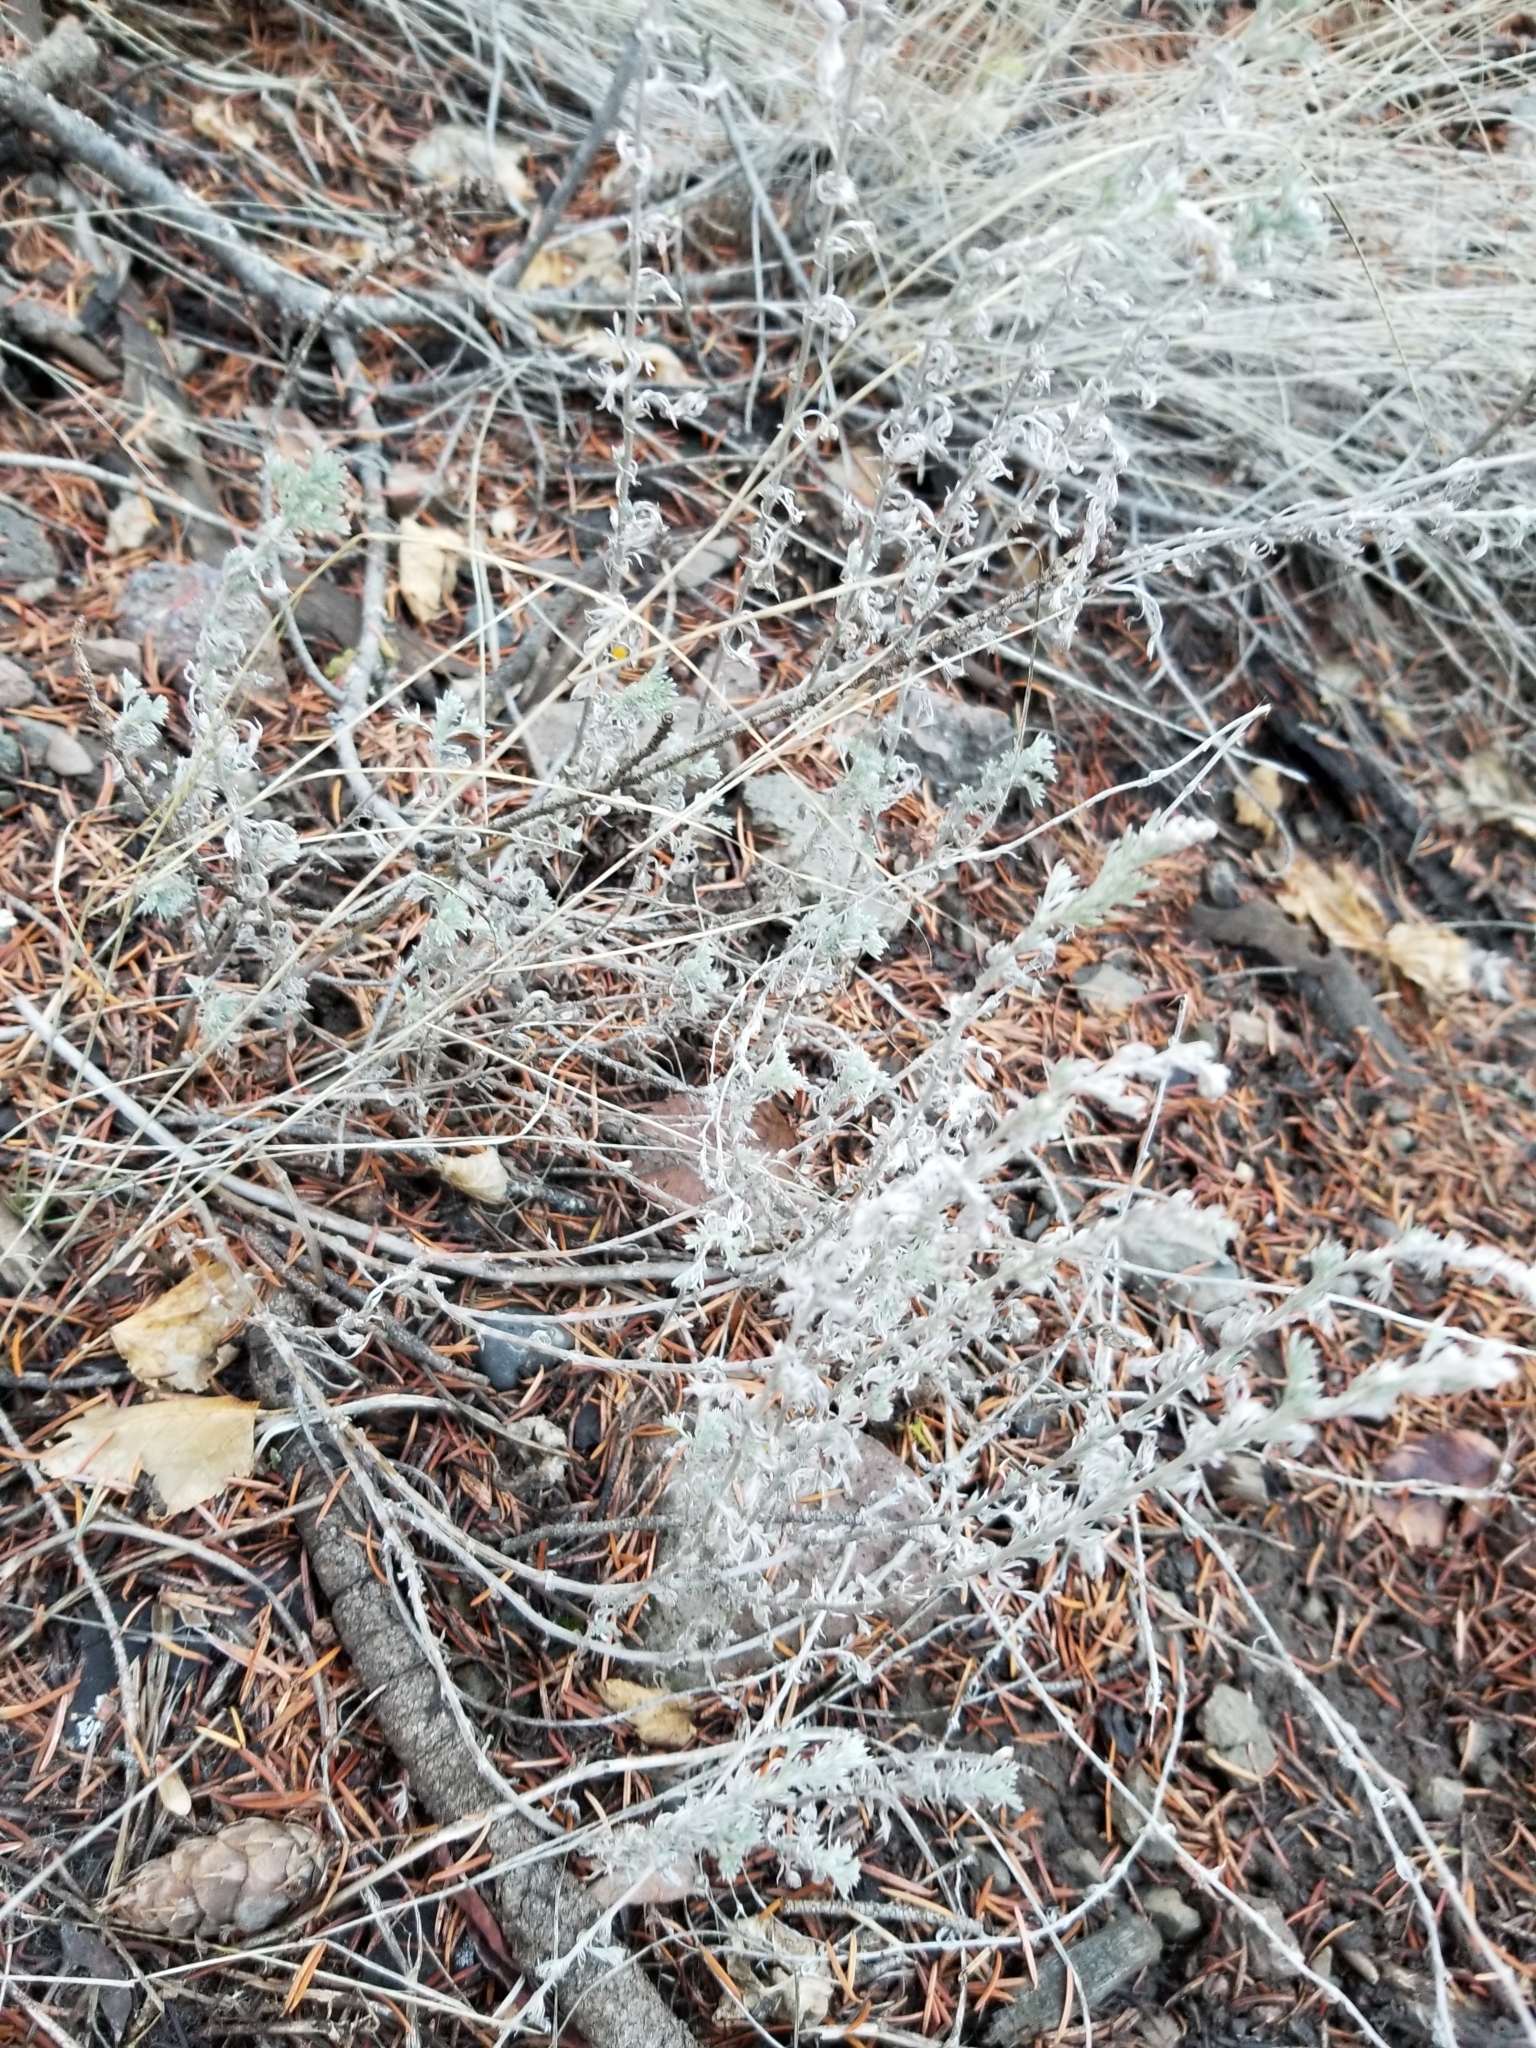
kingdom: Plantae
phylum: Tracheophyta
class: Magnoliopsida
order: Asterales
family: Asteraceae
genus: Artemisia
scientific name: Artemisia frigida
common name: Prairie sagewort
